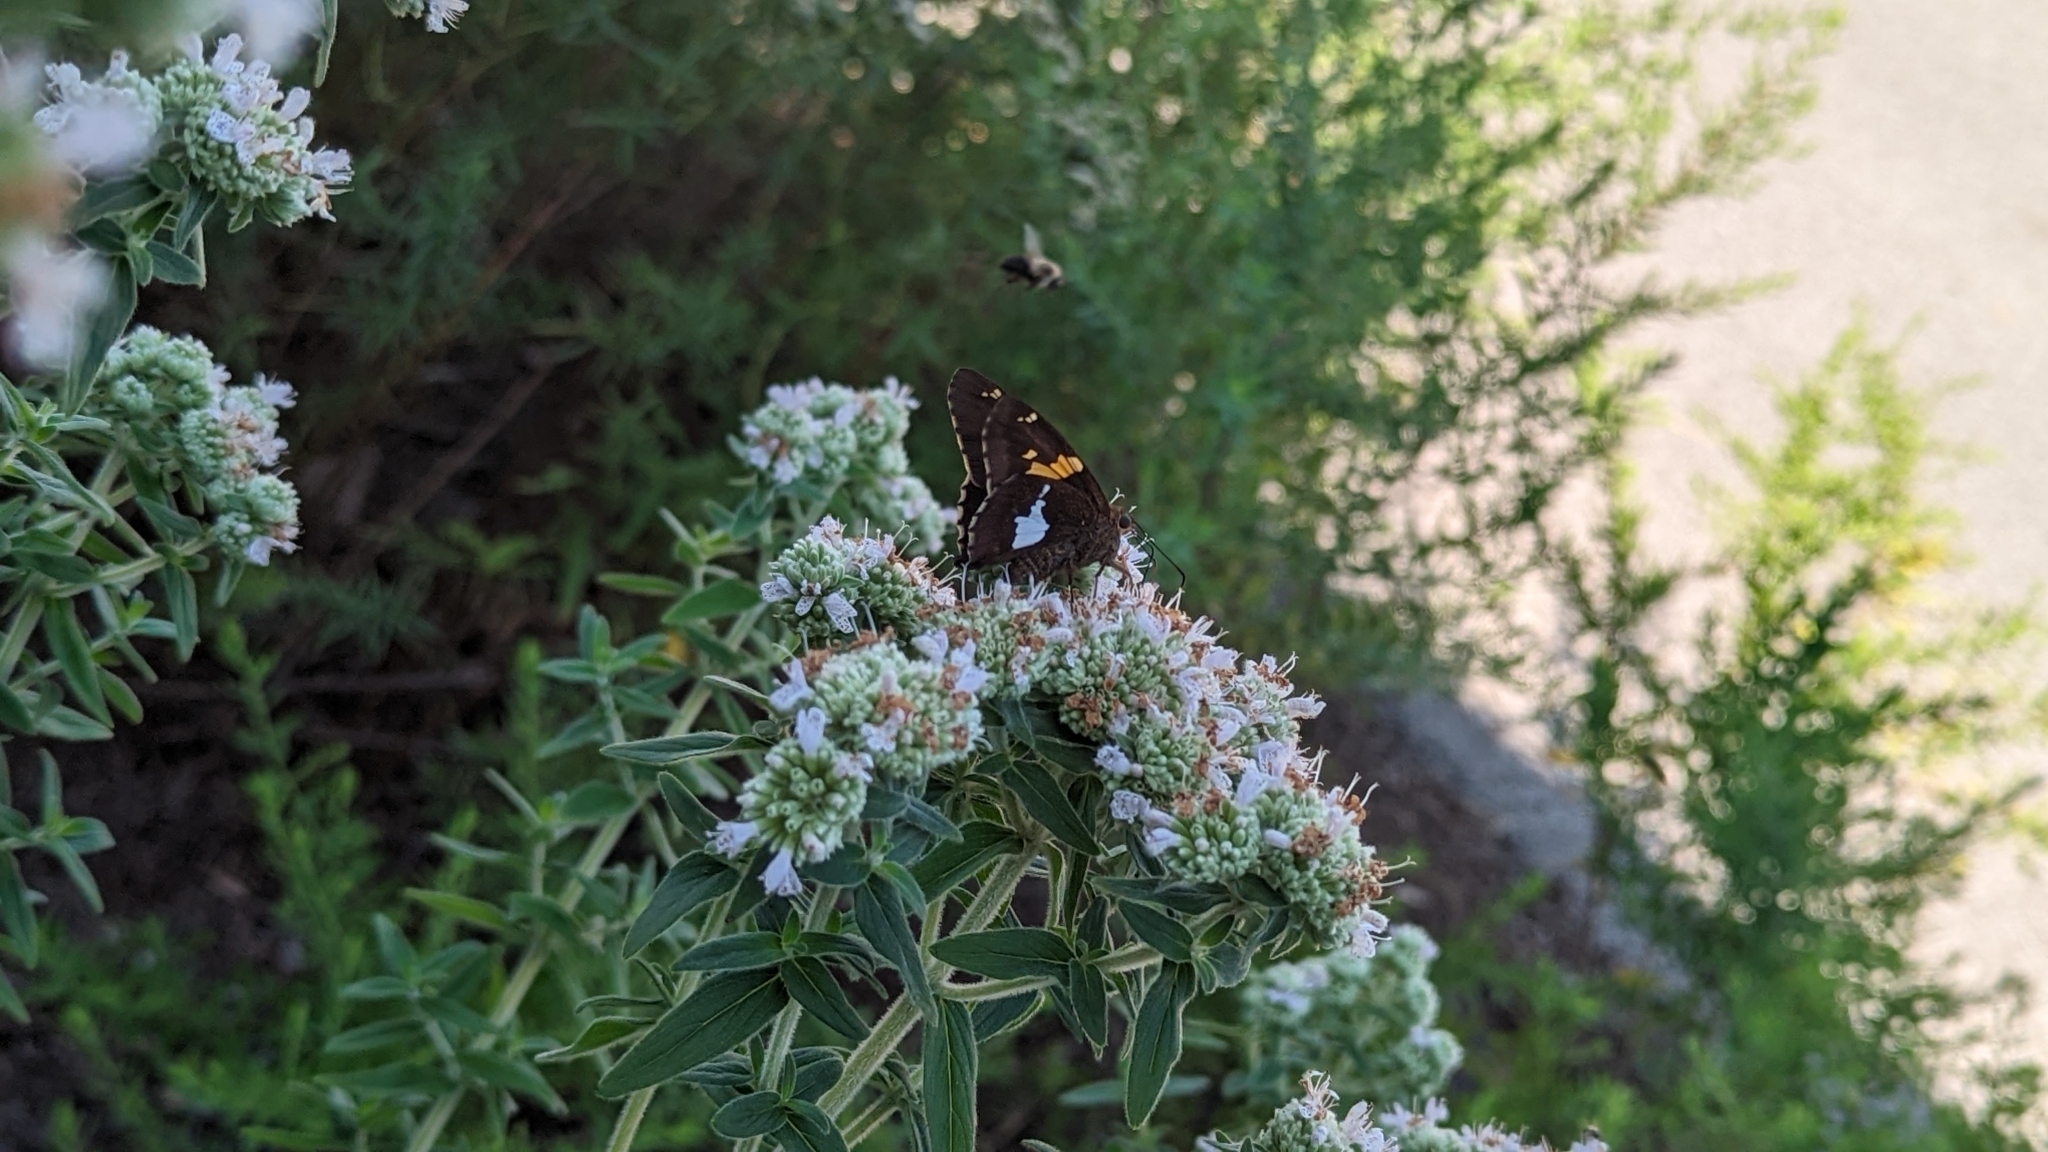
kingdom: Animalia
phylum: Arthropoda
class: Insecta
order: Lepidoptera
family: Hesperiidae
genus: Epargyreus
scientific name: Epargyreus clarus
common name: Silver-spotted skipper
